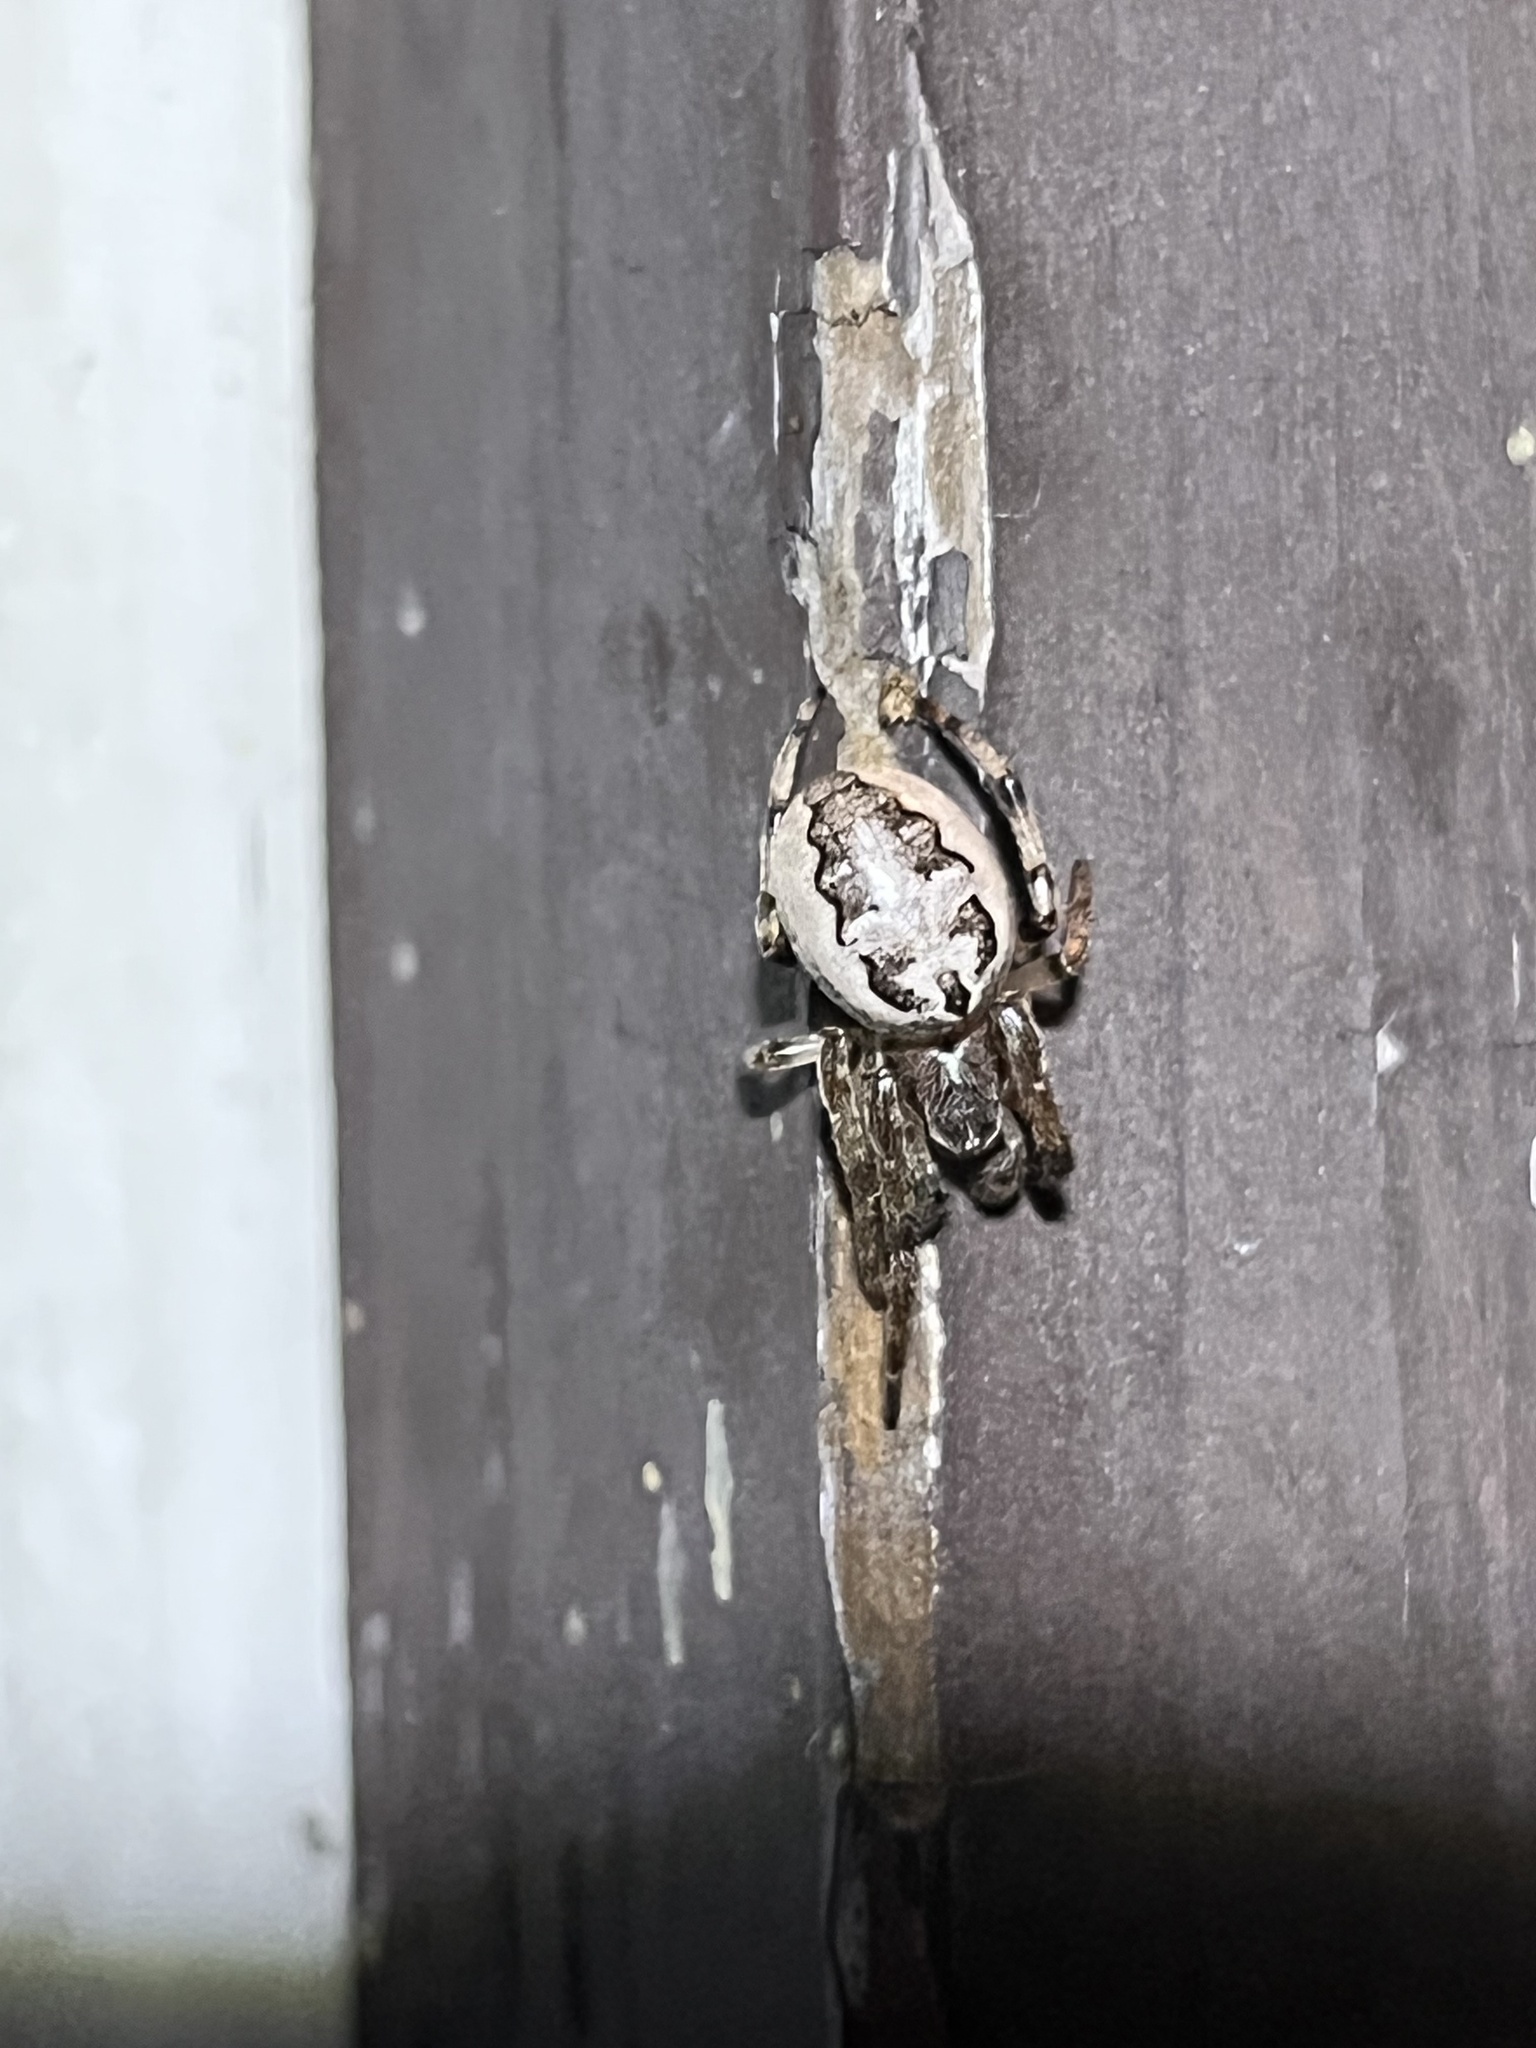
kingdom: Animalia
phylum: Arthropoda
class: Arachnida
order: Araneae
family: Araneidae
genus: Larinioides
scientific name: Larinioides cornutus
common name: Furrow orbweaver
